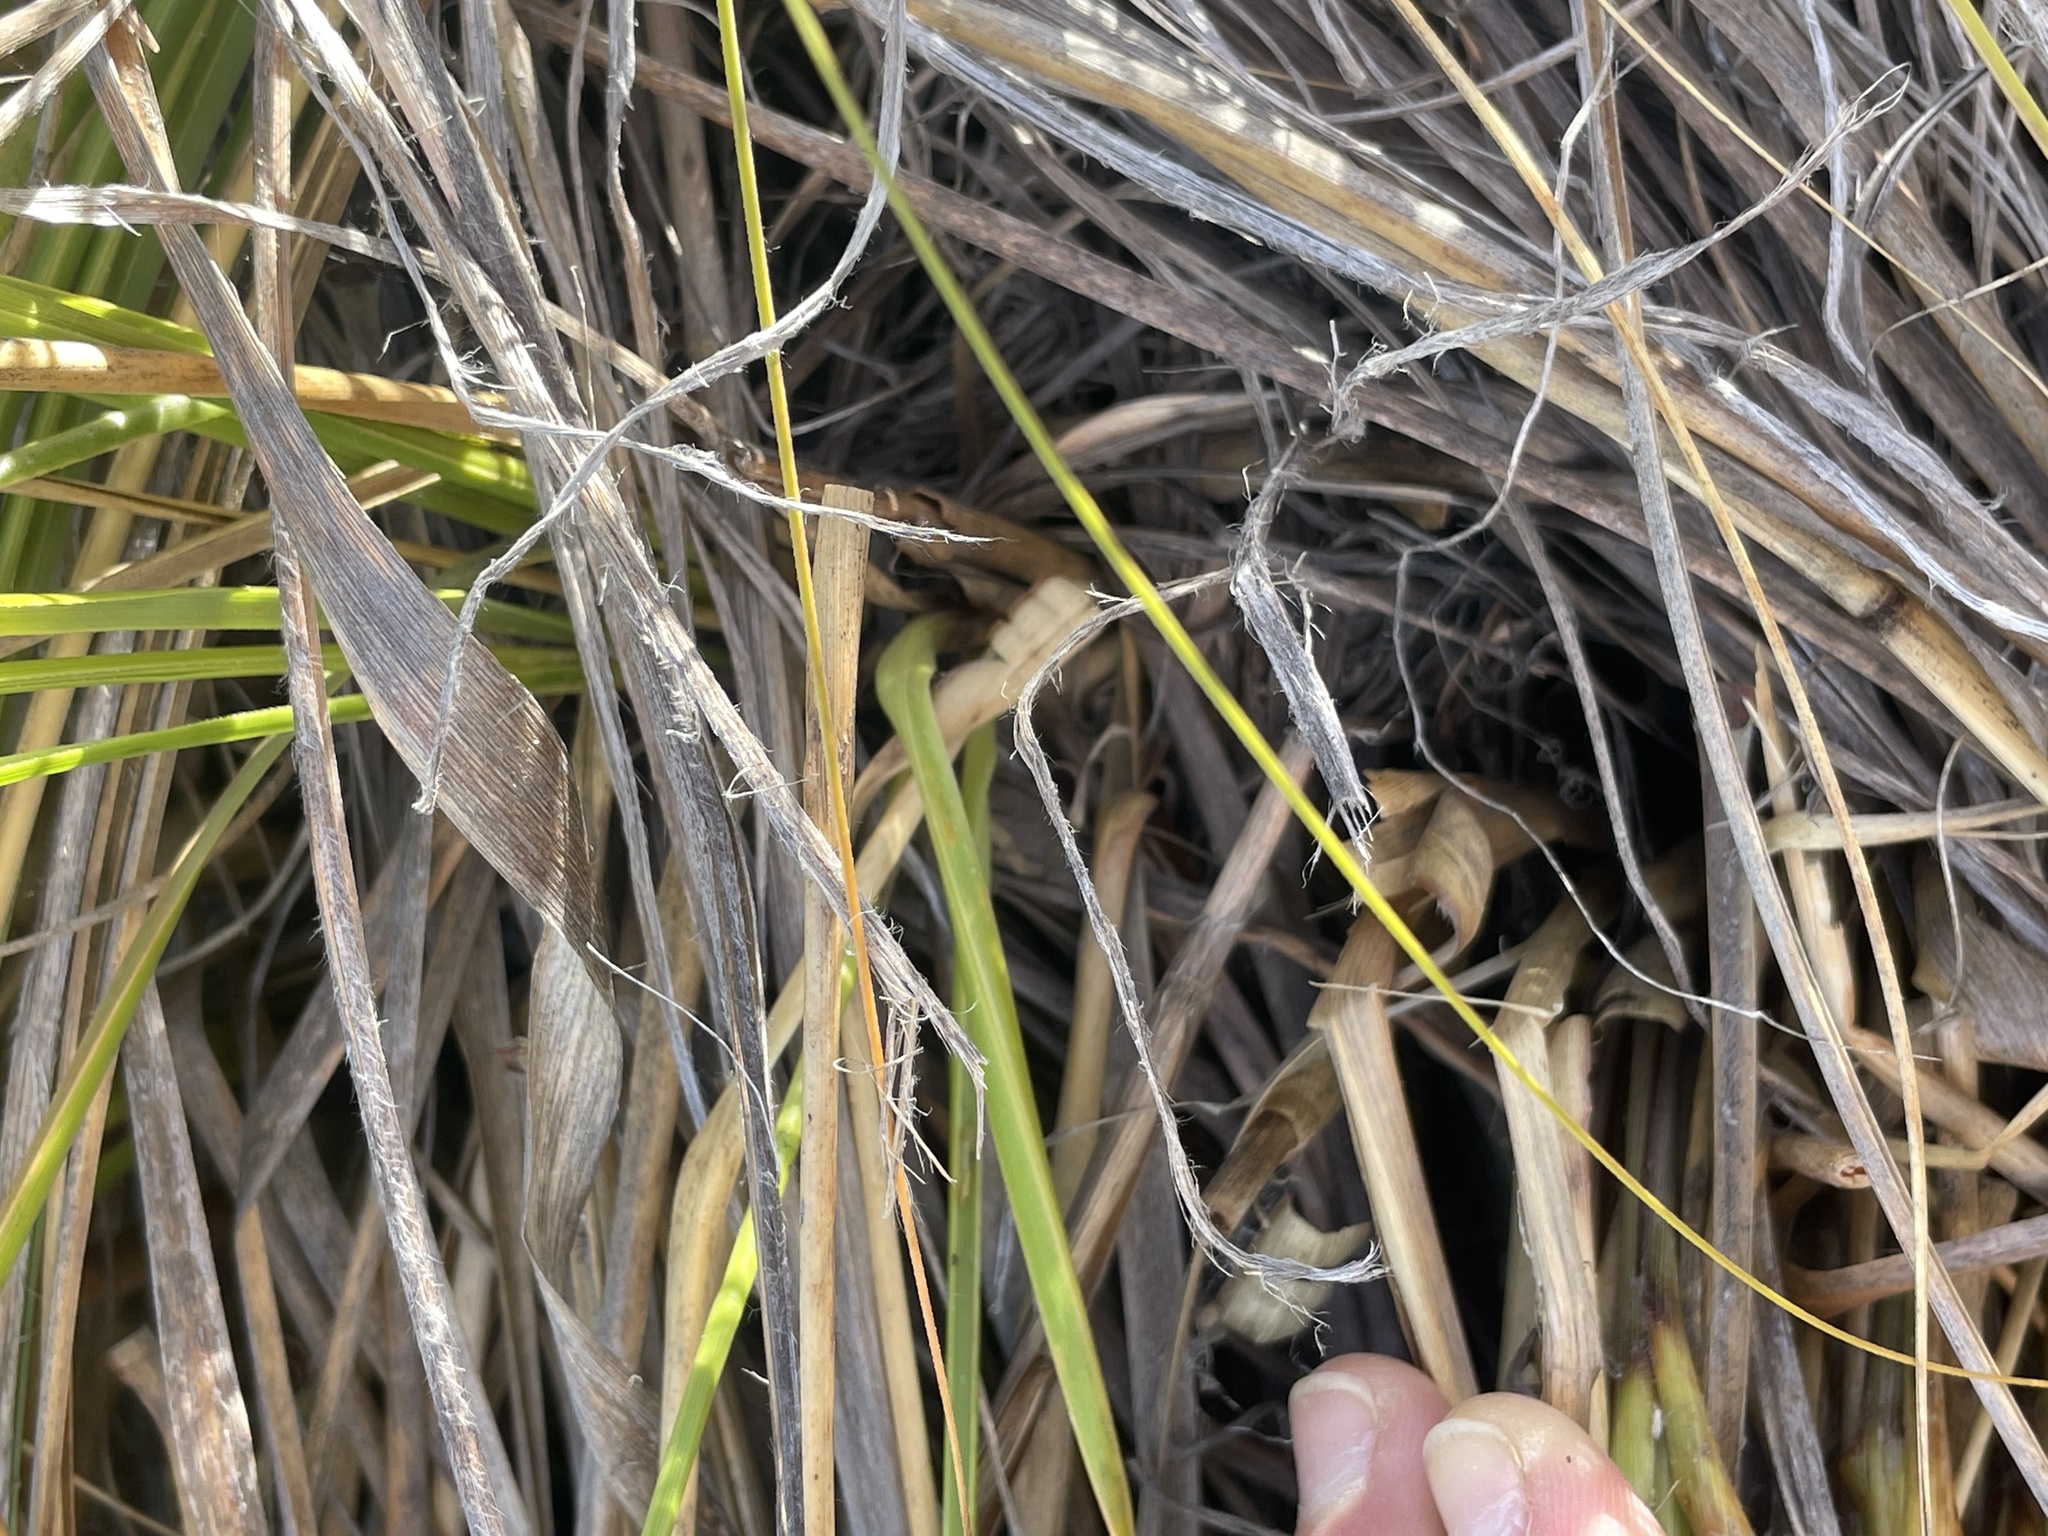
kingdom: Plantae
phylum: Tracheophyta
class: Liliopsida
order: Poales
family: Poaceae
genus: Chionochloa
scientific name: Chionochloa rigida
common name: Narrow leaved snow tussock
